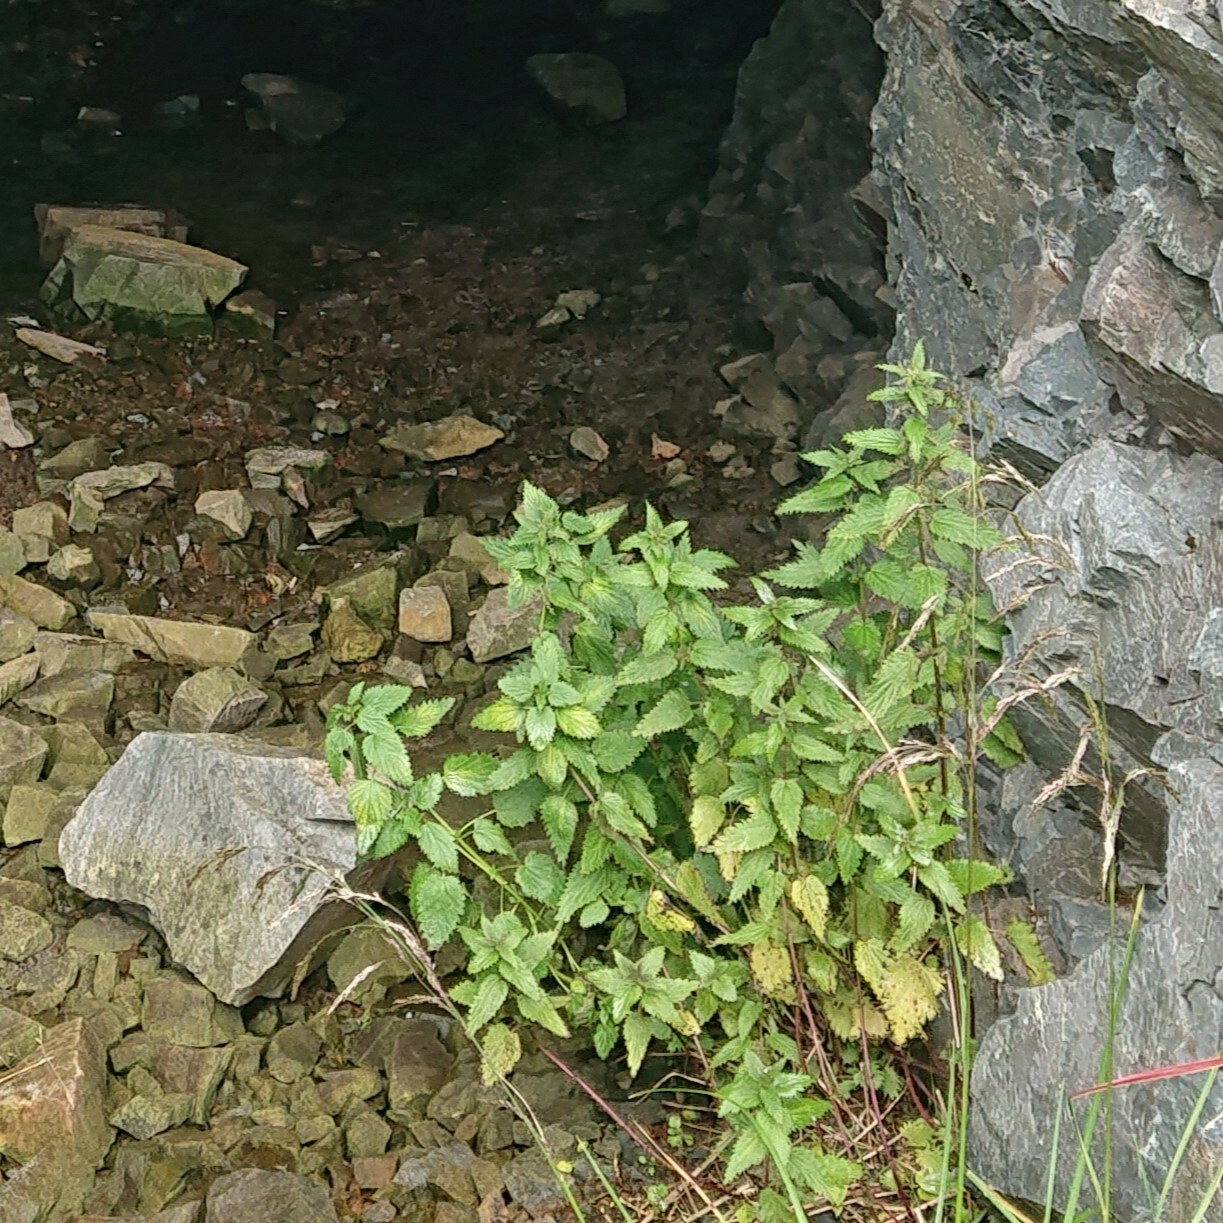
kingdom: Plantae
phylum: Tracheophyta
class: Magnoliopsida
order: Rosales
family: Urticaceae
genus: Urtica
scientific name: Urtica dioica
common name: Common nettle
